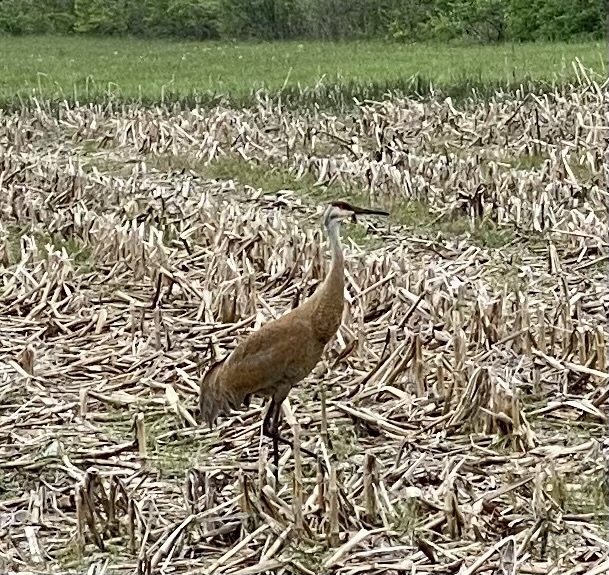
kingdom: Animalia
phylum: Chordata
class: Aves
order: Gruiformes
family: Gruidae
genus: Grus
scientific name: Grus canadensis
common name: Sandhill crane
